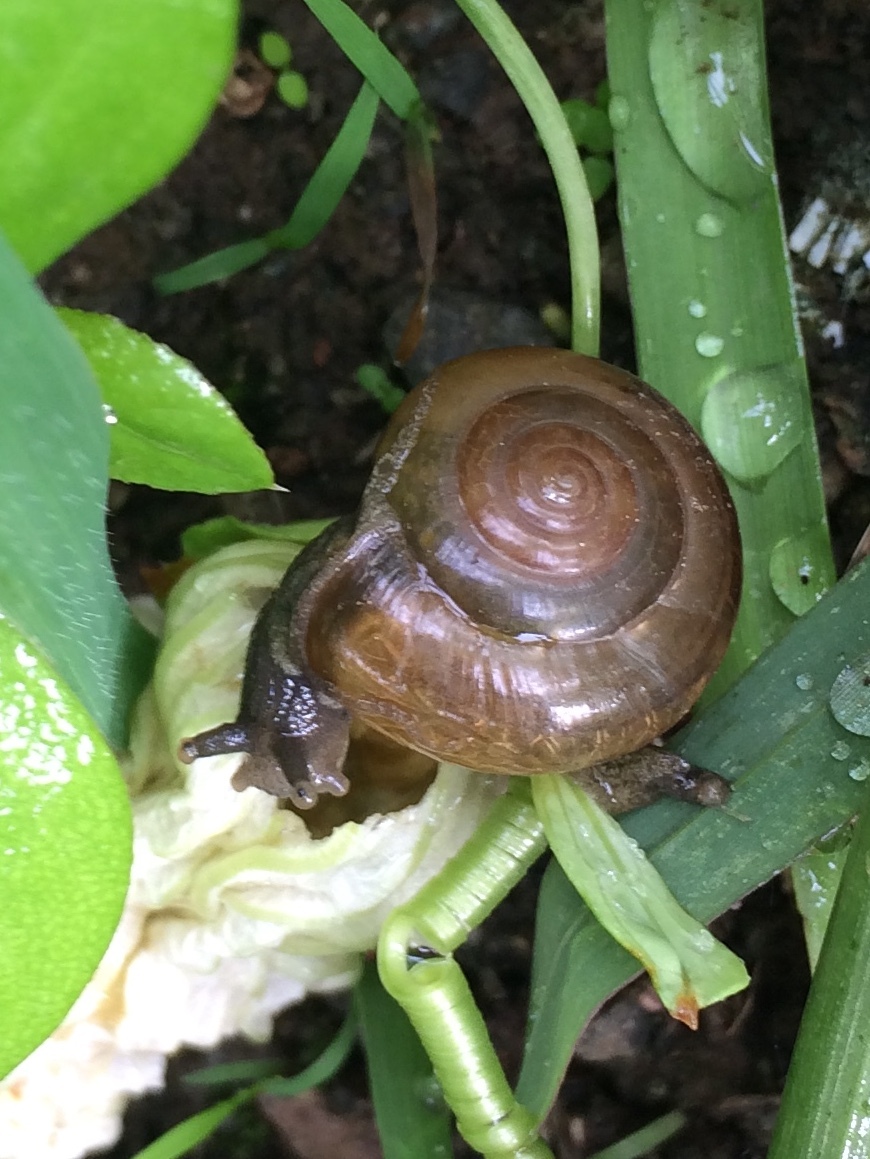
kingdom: Animalia
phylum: Mollusca
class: Gastropoda
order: Stylommatophora
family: Ariophantidae
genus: Macrochlamys
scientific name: Macrochlamys indica
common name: Horntail snail
